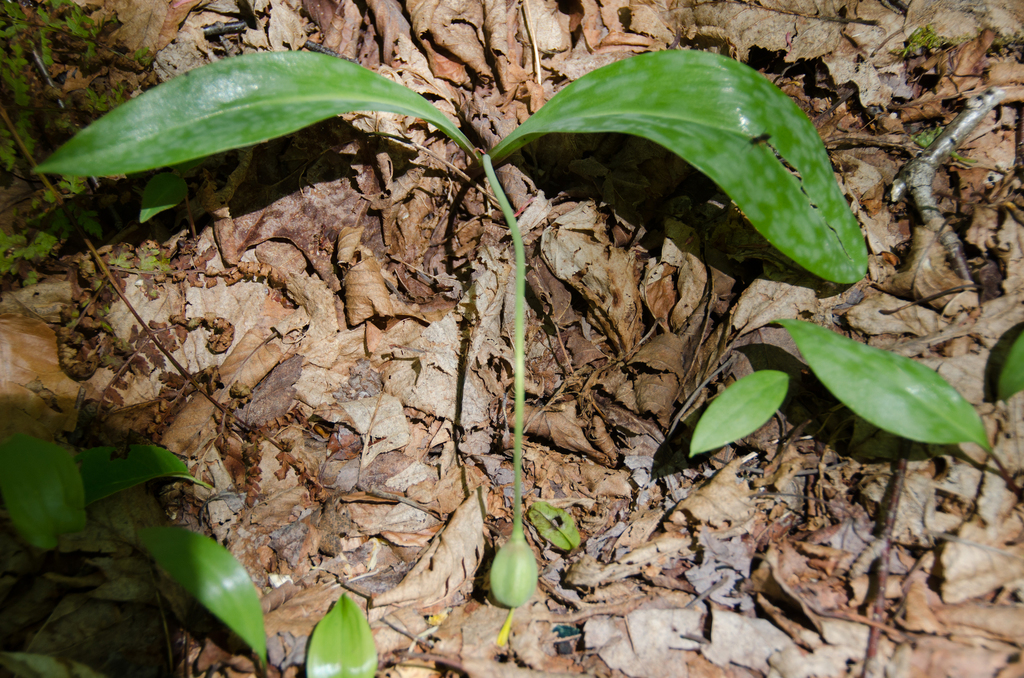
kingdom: Plantae
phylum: Tracheophyta
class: Liliopsida
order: Liliales
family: Liliaceae
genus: Erythronium
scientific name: Erythronium americanum
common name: Yellow adder's-tongue
